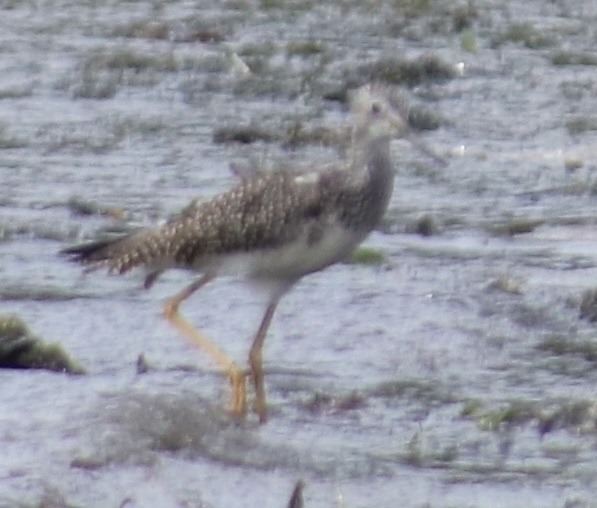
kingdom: Animalia
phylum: Chordata
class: Aves
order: Charadriiformes
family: Scolopacidae
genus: Tringa
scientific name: Tringa melanoleuca
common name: Greater yellowlegs
